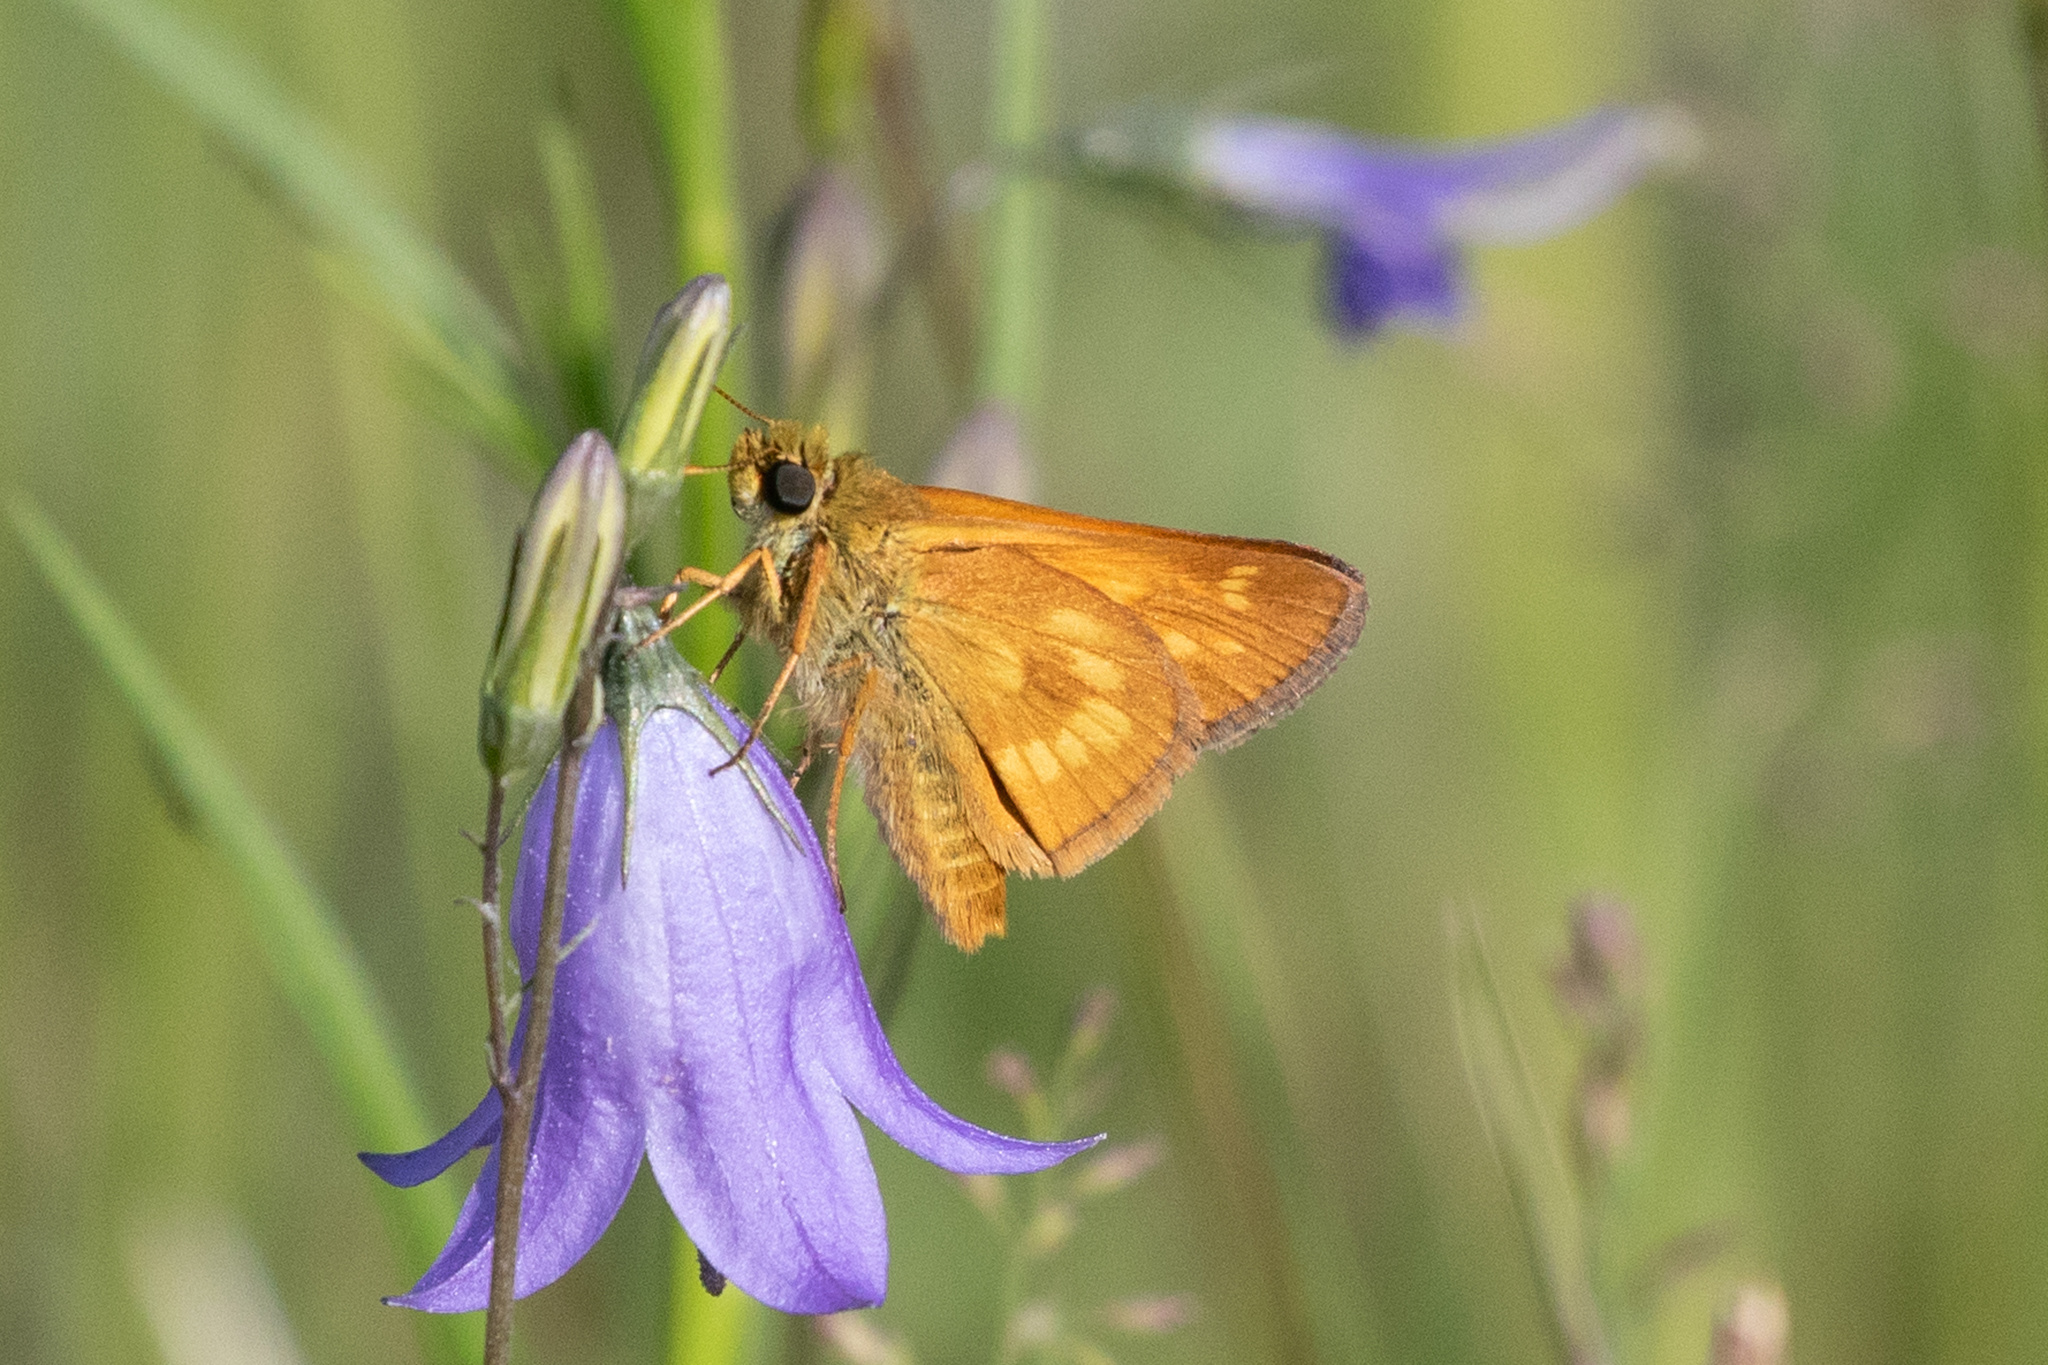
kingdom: Animalia
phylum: Arthropoda
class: Insecta
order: Lepidoptera
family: Hesperiidae
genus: Polites
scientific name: Polites mystic
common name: Long dash
